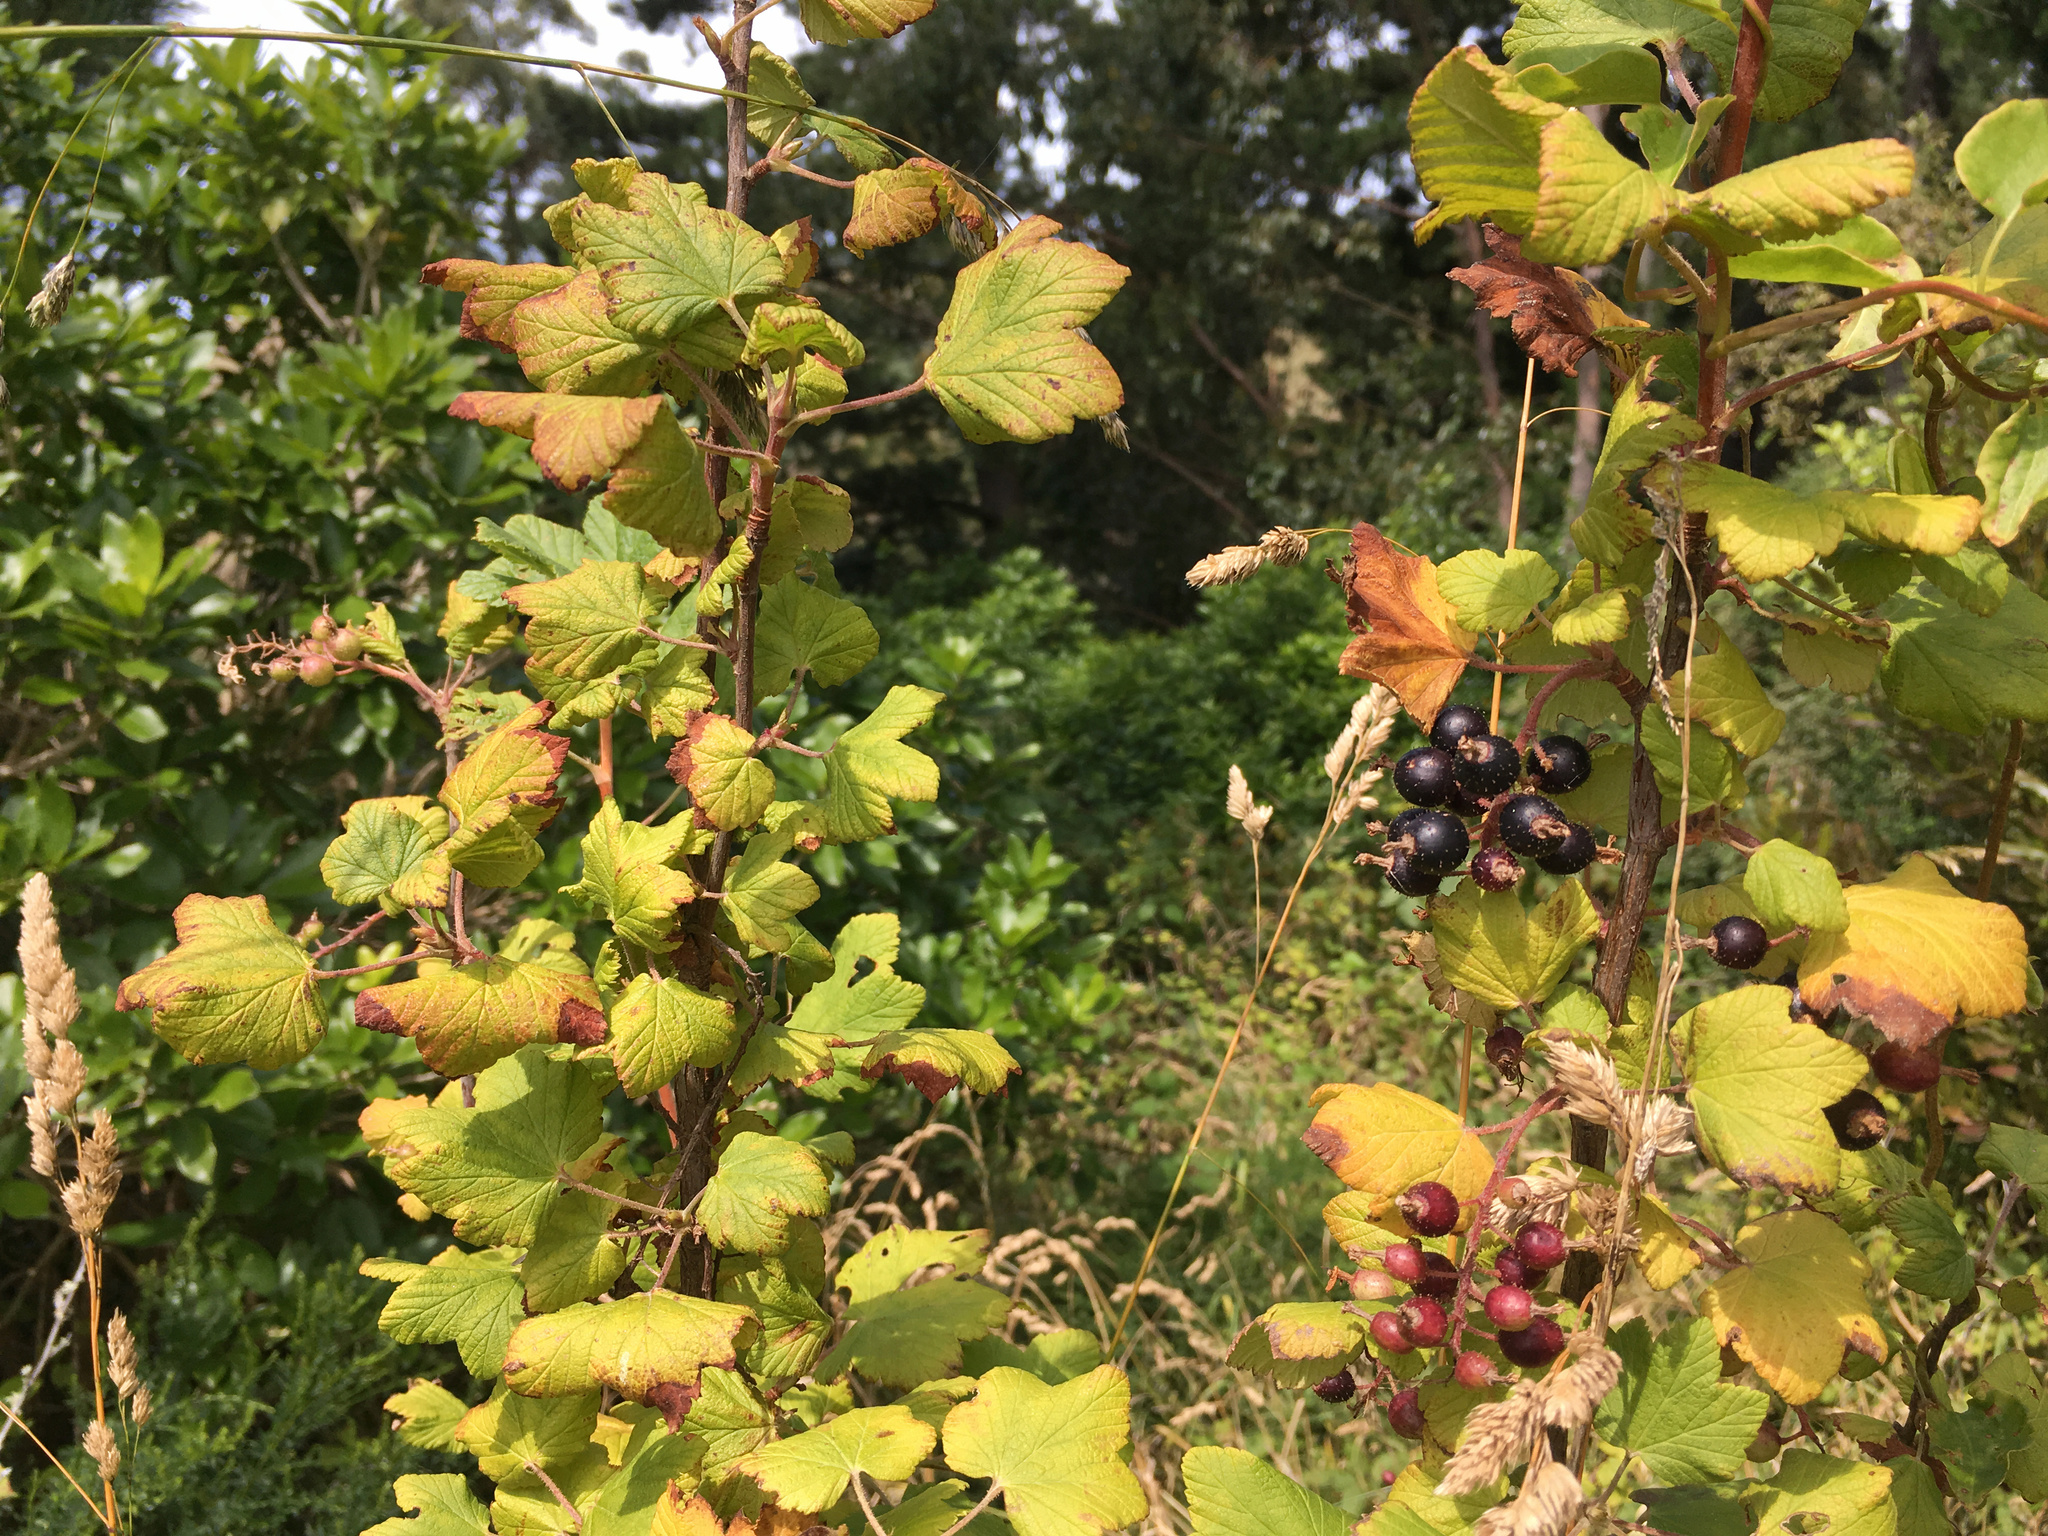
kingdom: Plantae
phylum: Tracheophyta
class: Magnoliopsida
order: Saxifragales
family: Grossulariaceae
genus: Ribes
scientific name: Ribes sanguineum
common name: Flowering currant
